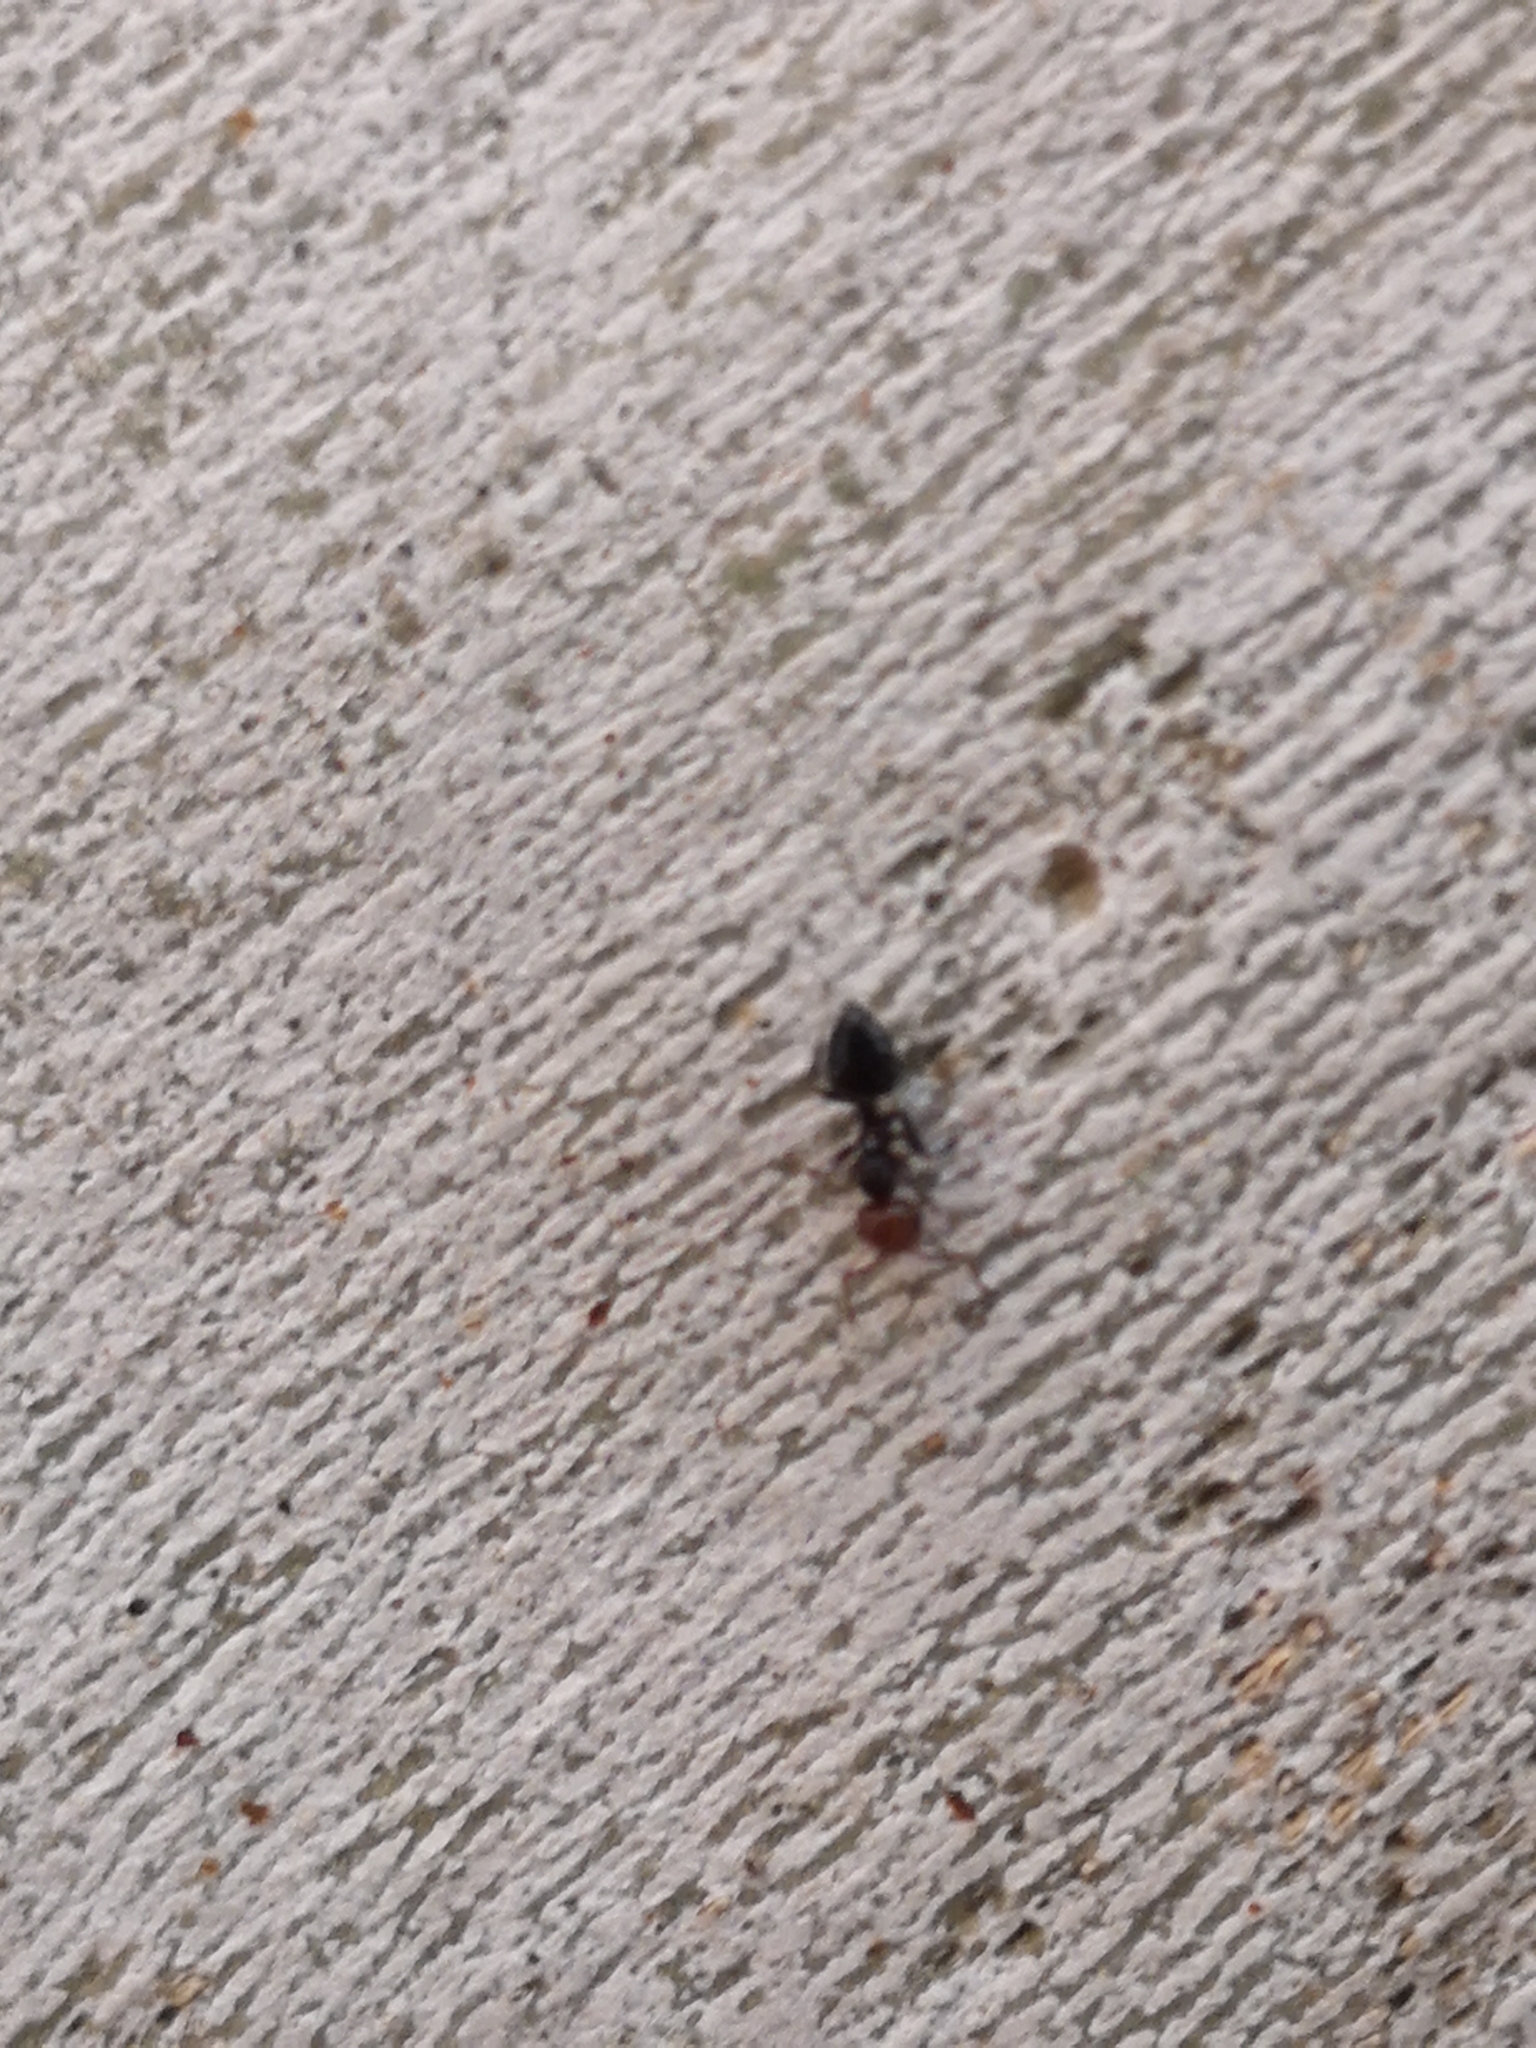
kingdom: Animalia
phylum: Arthropoda
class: Insecta
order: Hymenoptera
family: Formicidae
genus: Crematogaster
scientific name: Crematogaster scutellaris
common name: Fourmi du liège
